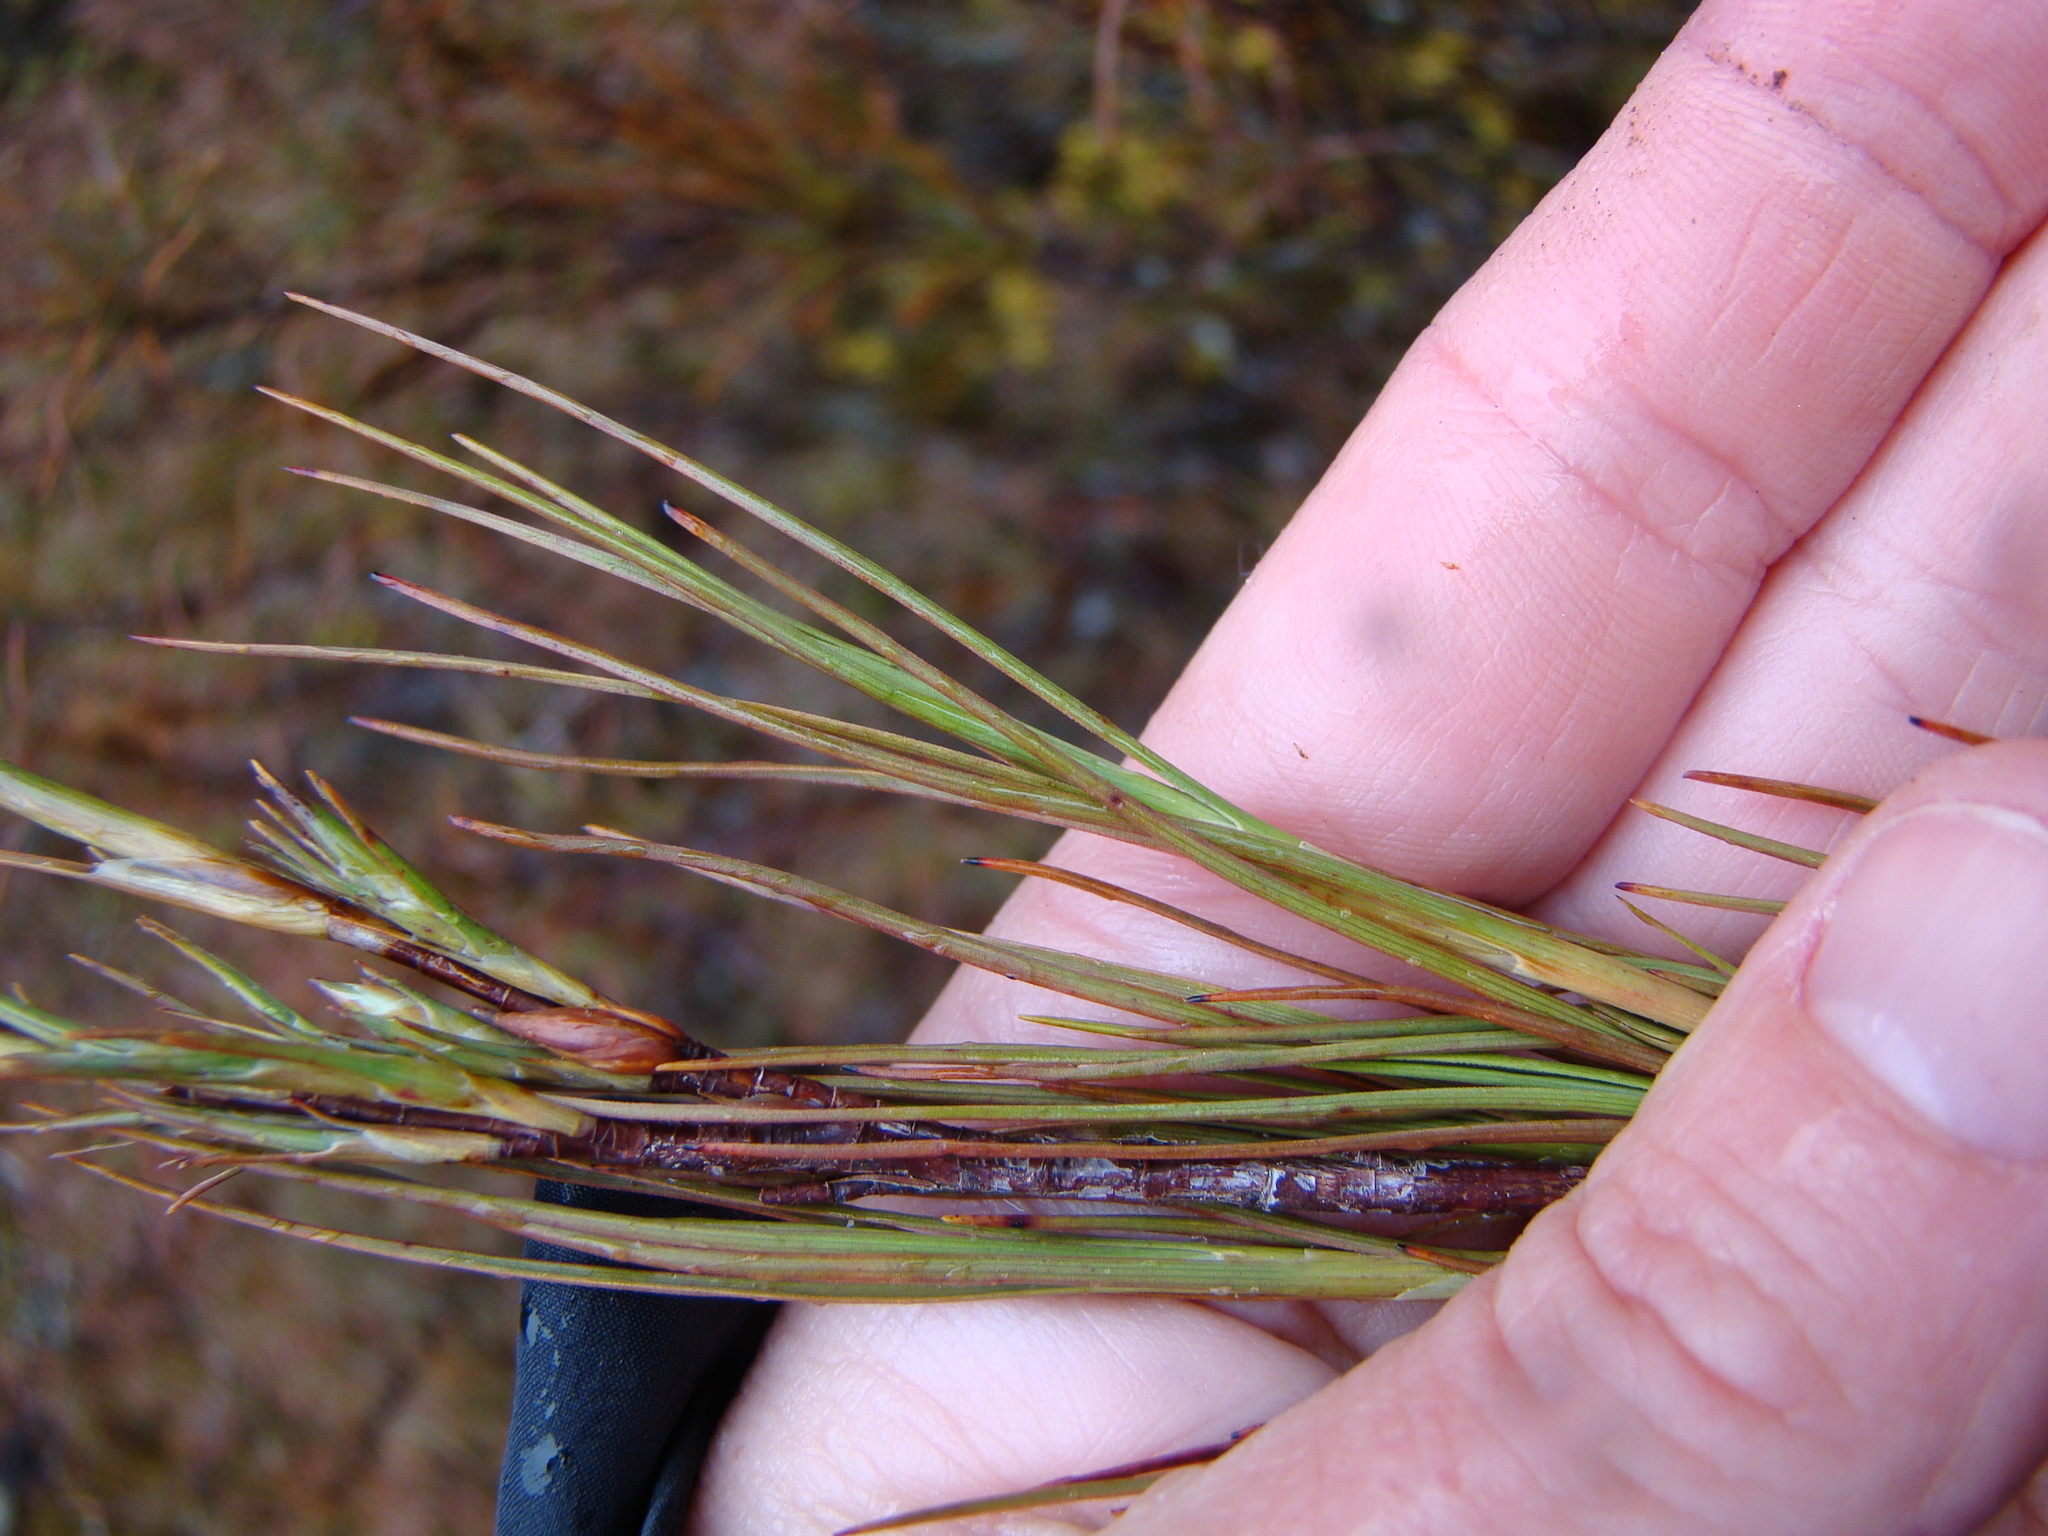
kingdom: Plantae
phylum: Tracheophyta
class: Magnoliopsida
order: Ericales
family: Ericaceae
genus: Dracophyllum
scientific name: Dracophyllum filifolium
